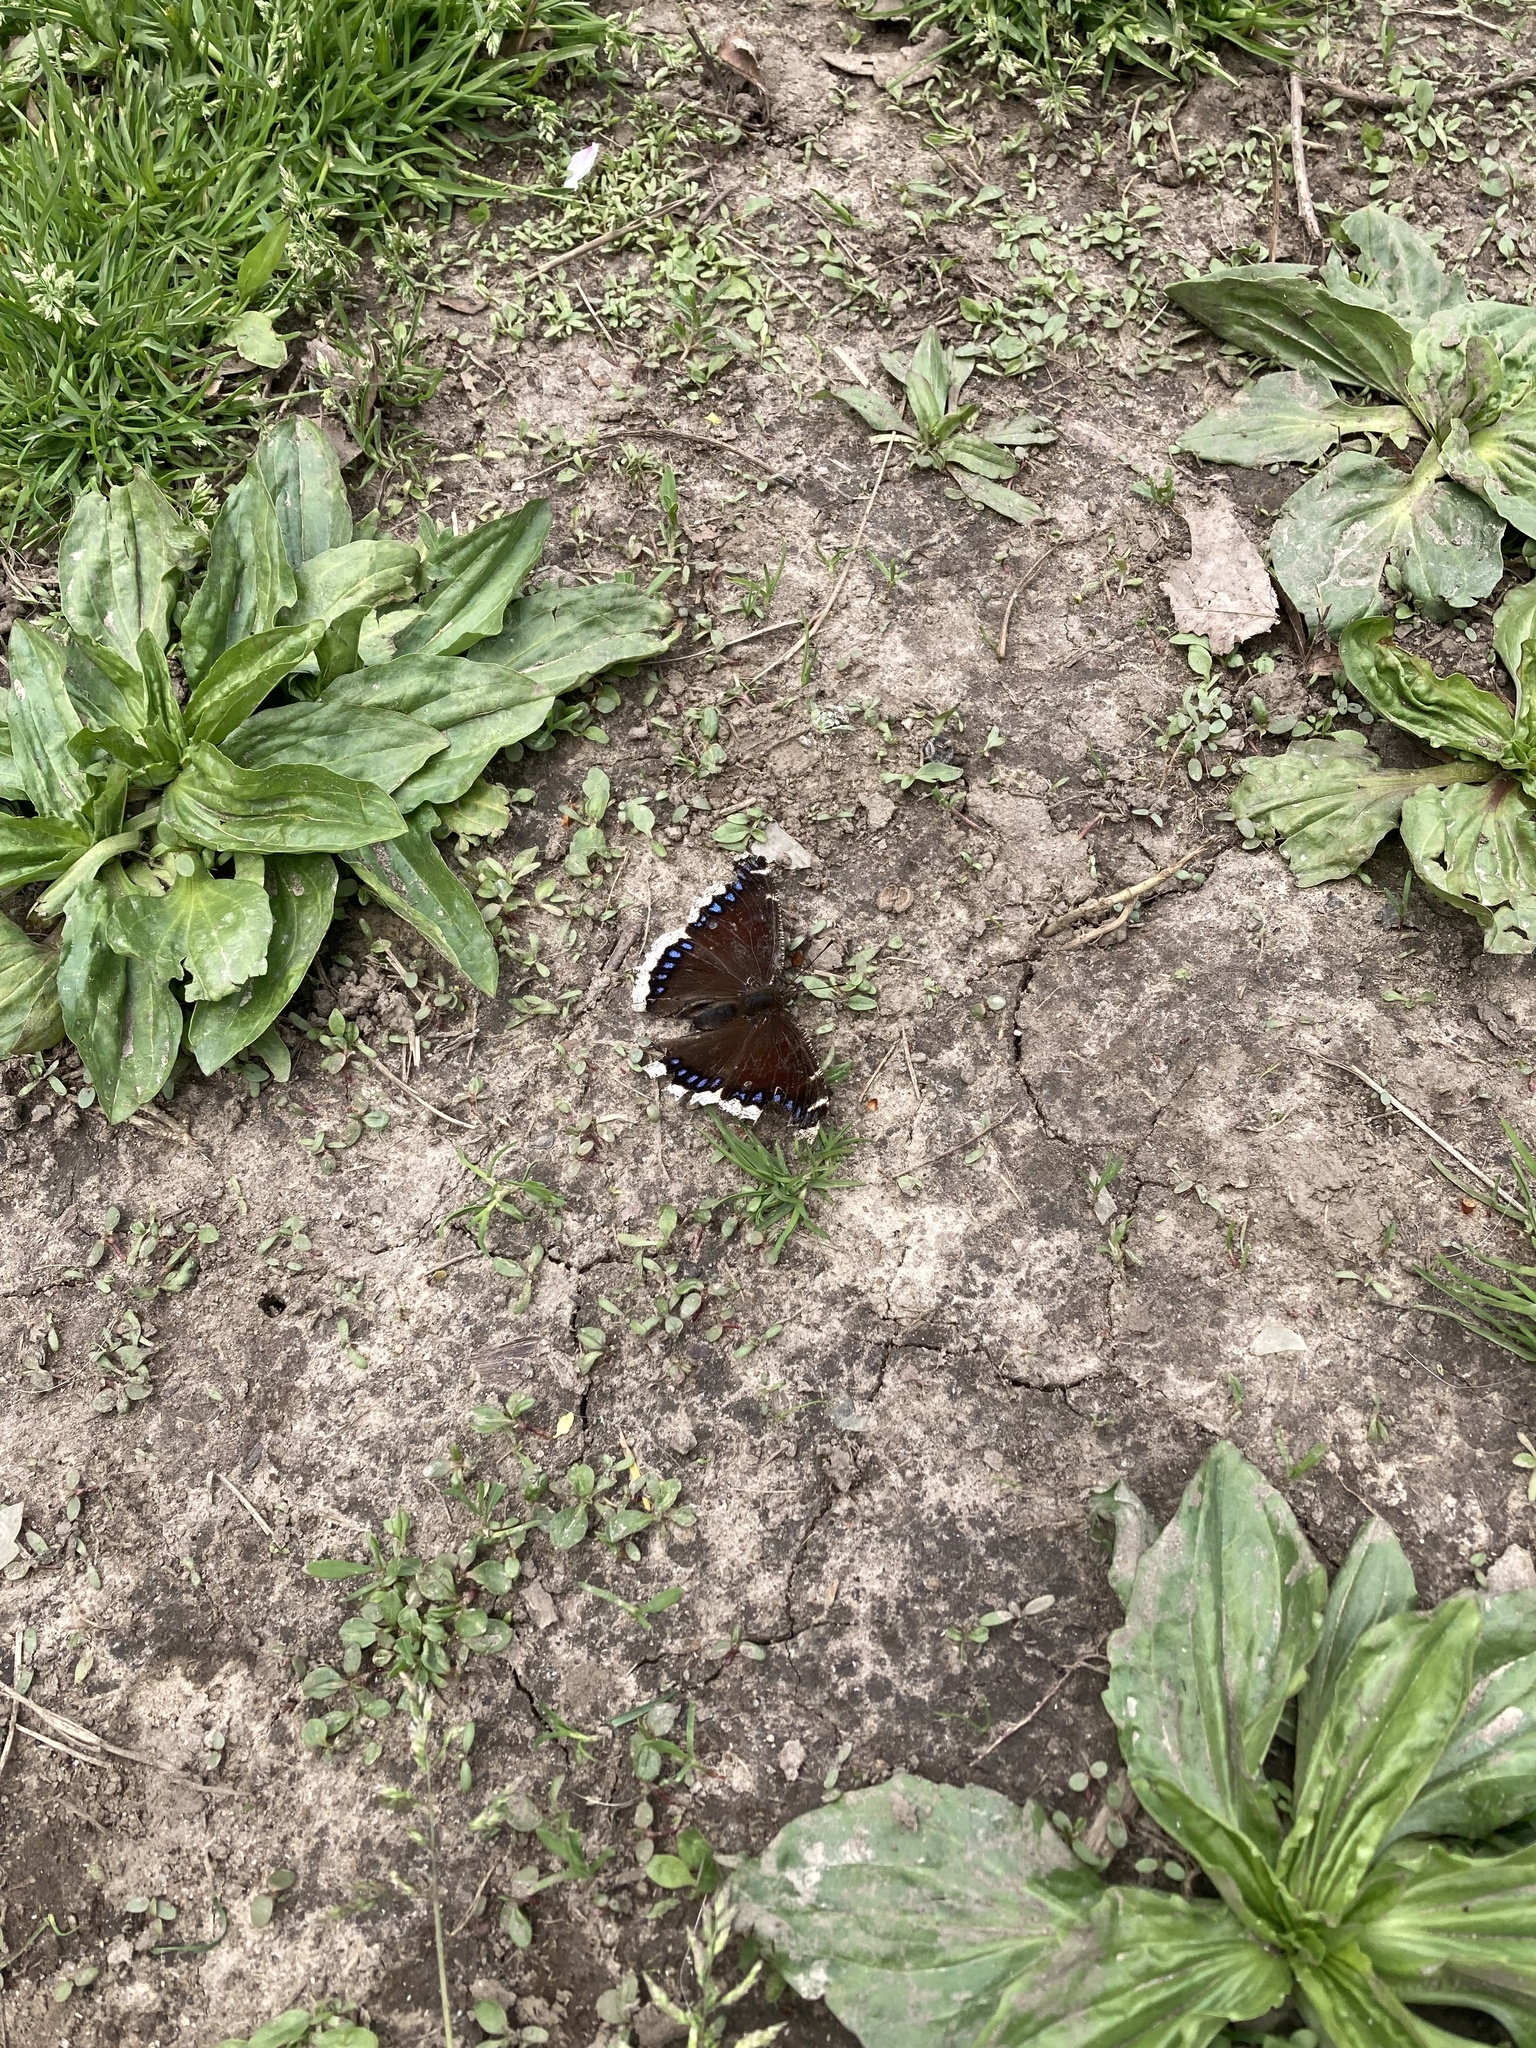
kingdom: Animalia
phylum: Arthropoda
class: Insecta
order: Lepidoptera
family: Nymphalidae
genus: Nymphalis
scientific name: Nymphalis antiopa
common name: Camberwell beauty
